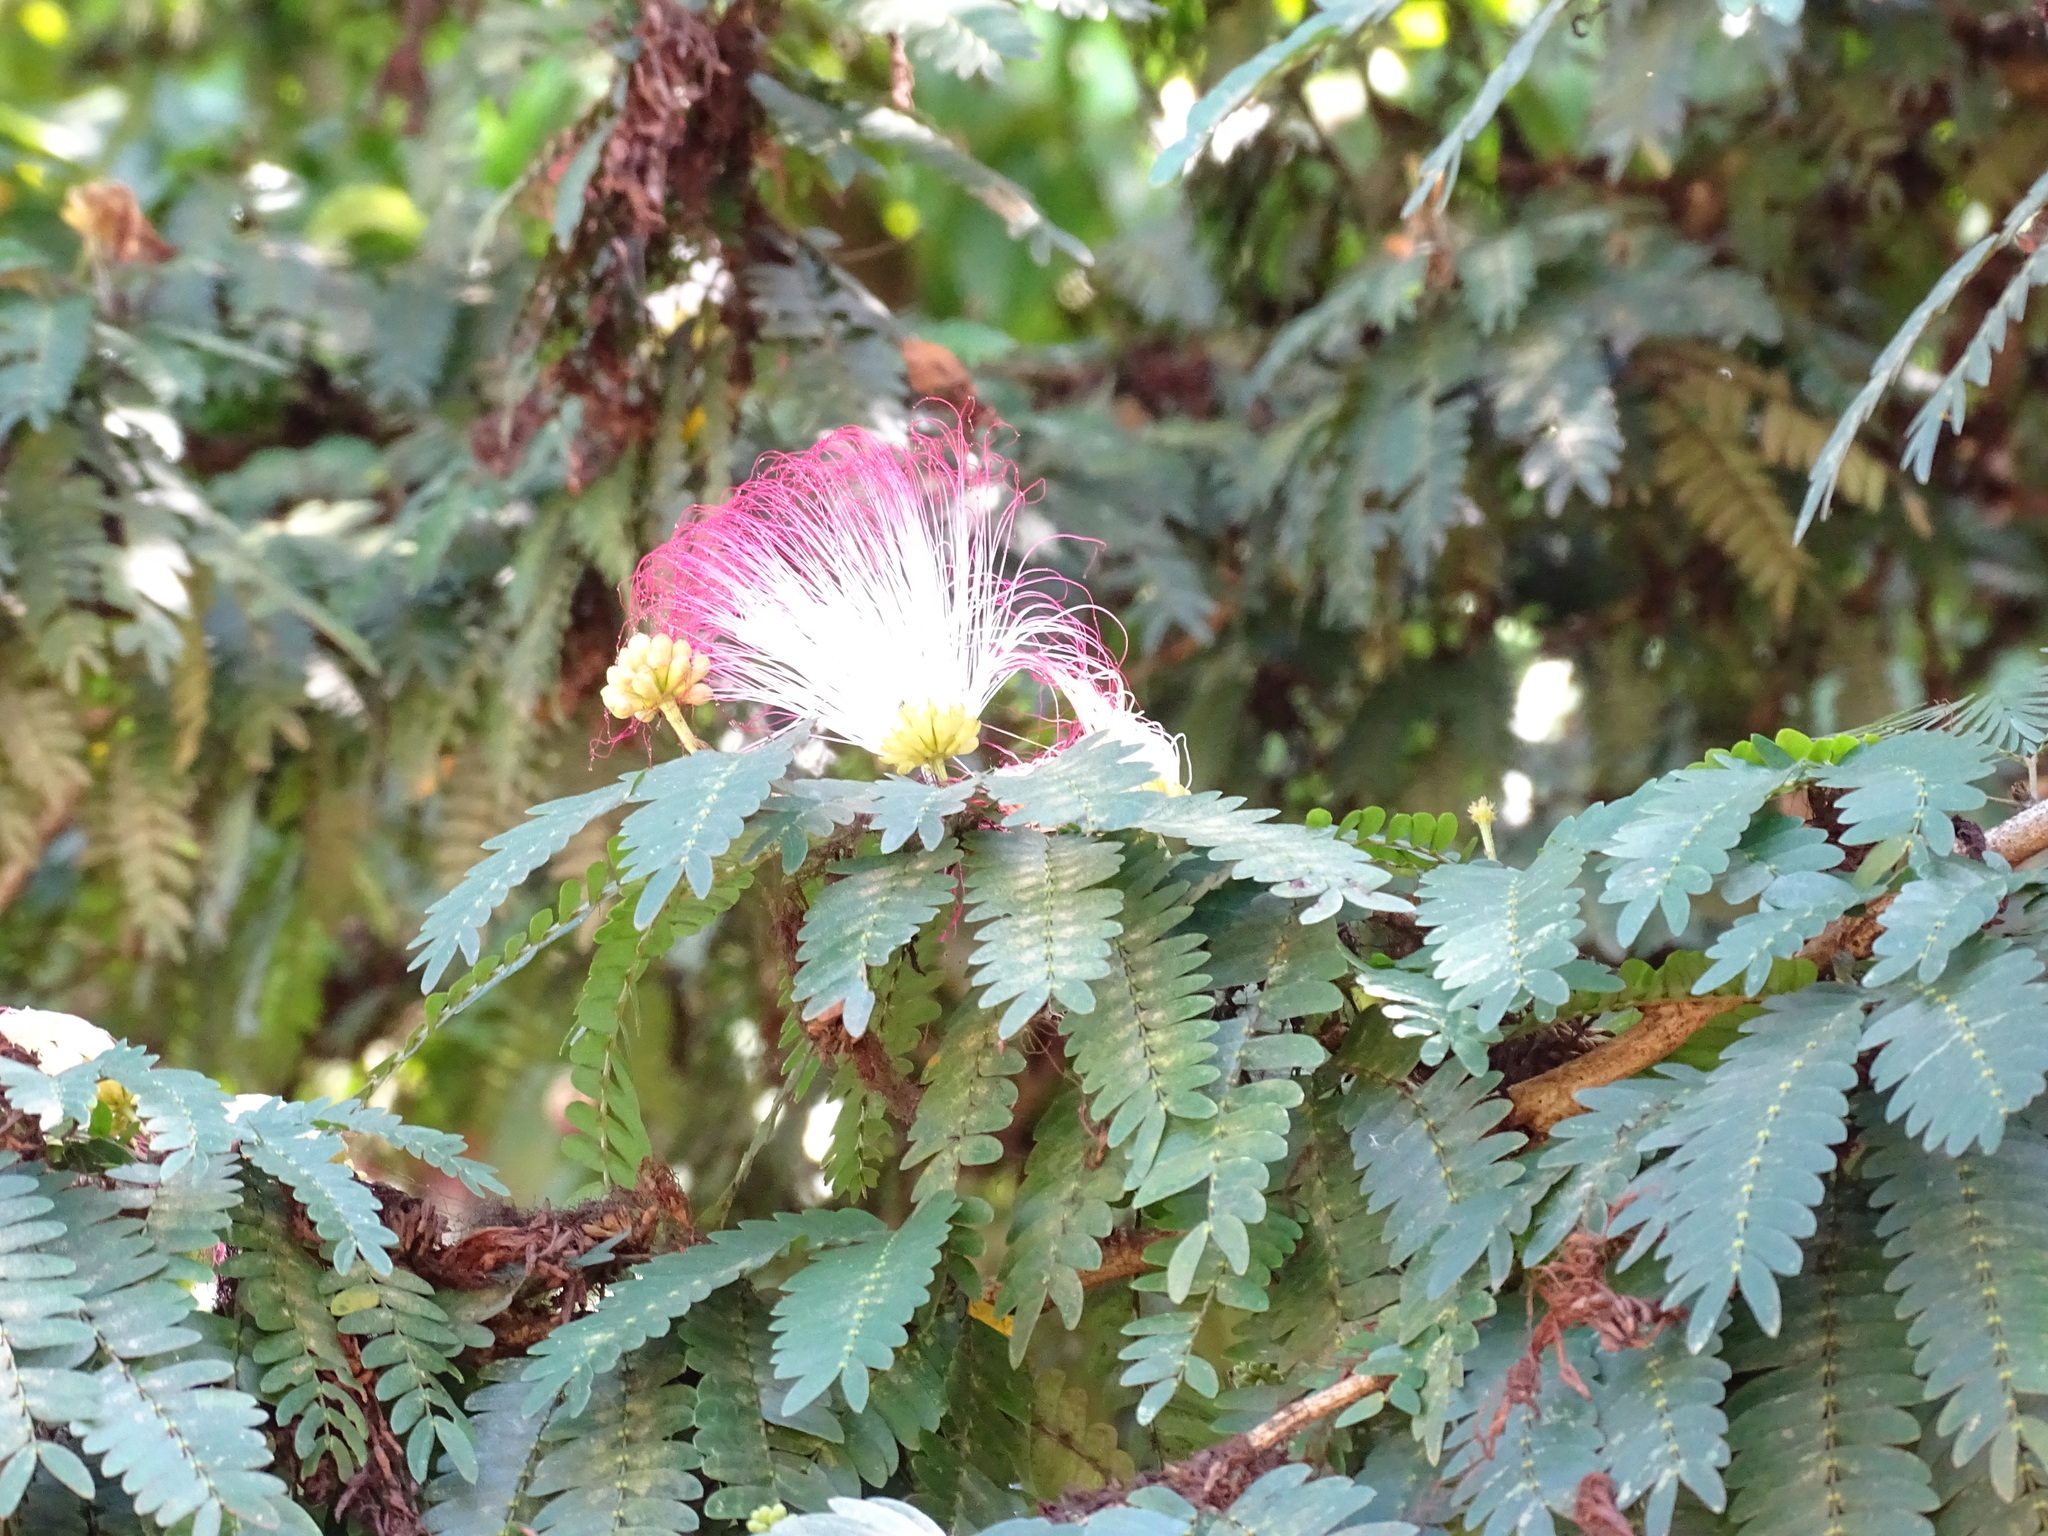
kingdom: Plantae
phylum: Tracheophyta
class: Magnoliopsida
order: Fabales
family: Fabaceae
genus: Calliandra
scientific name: Calliandra magdalenae
